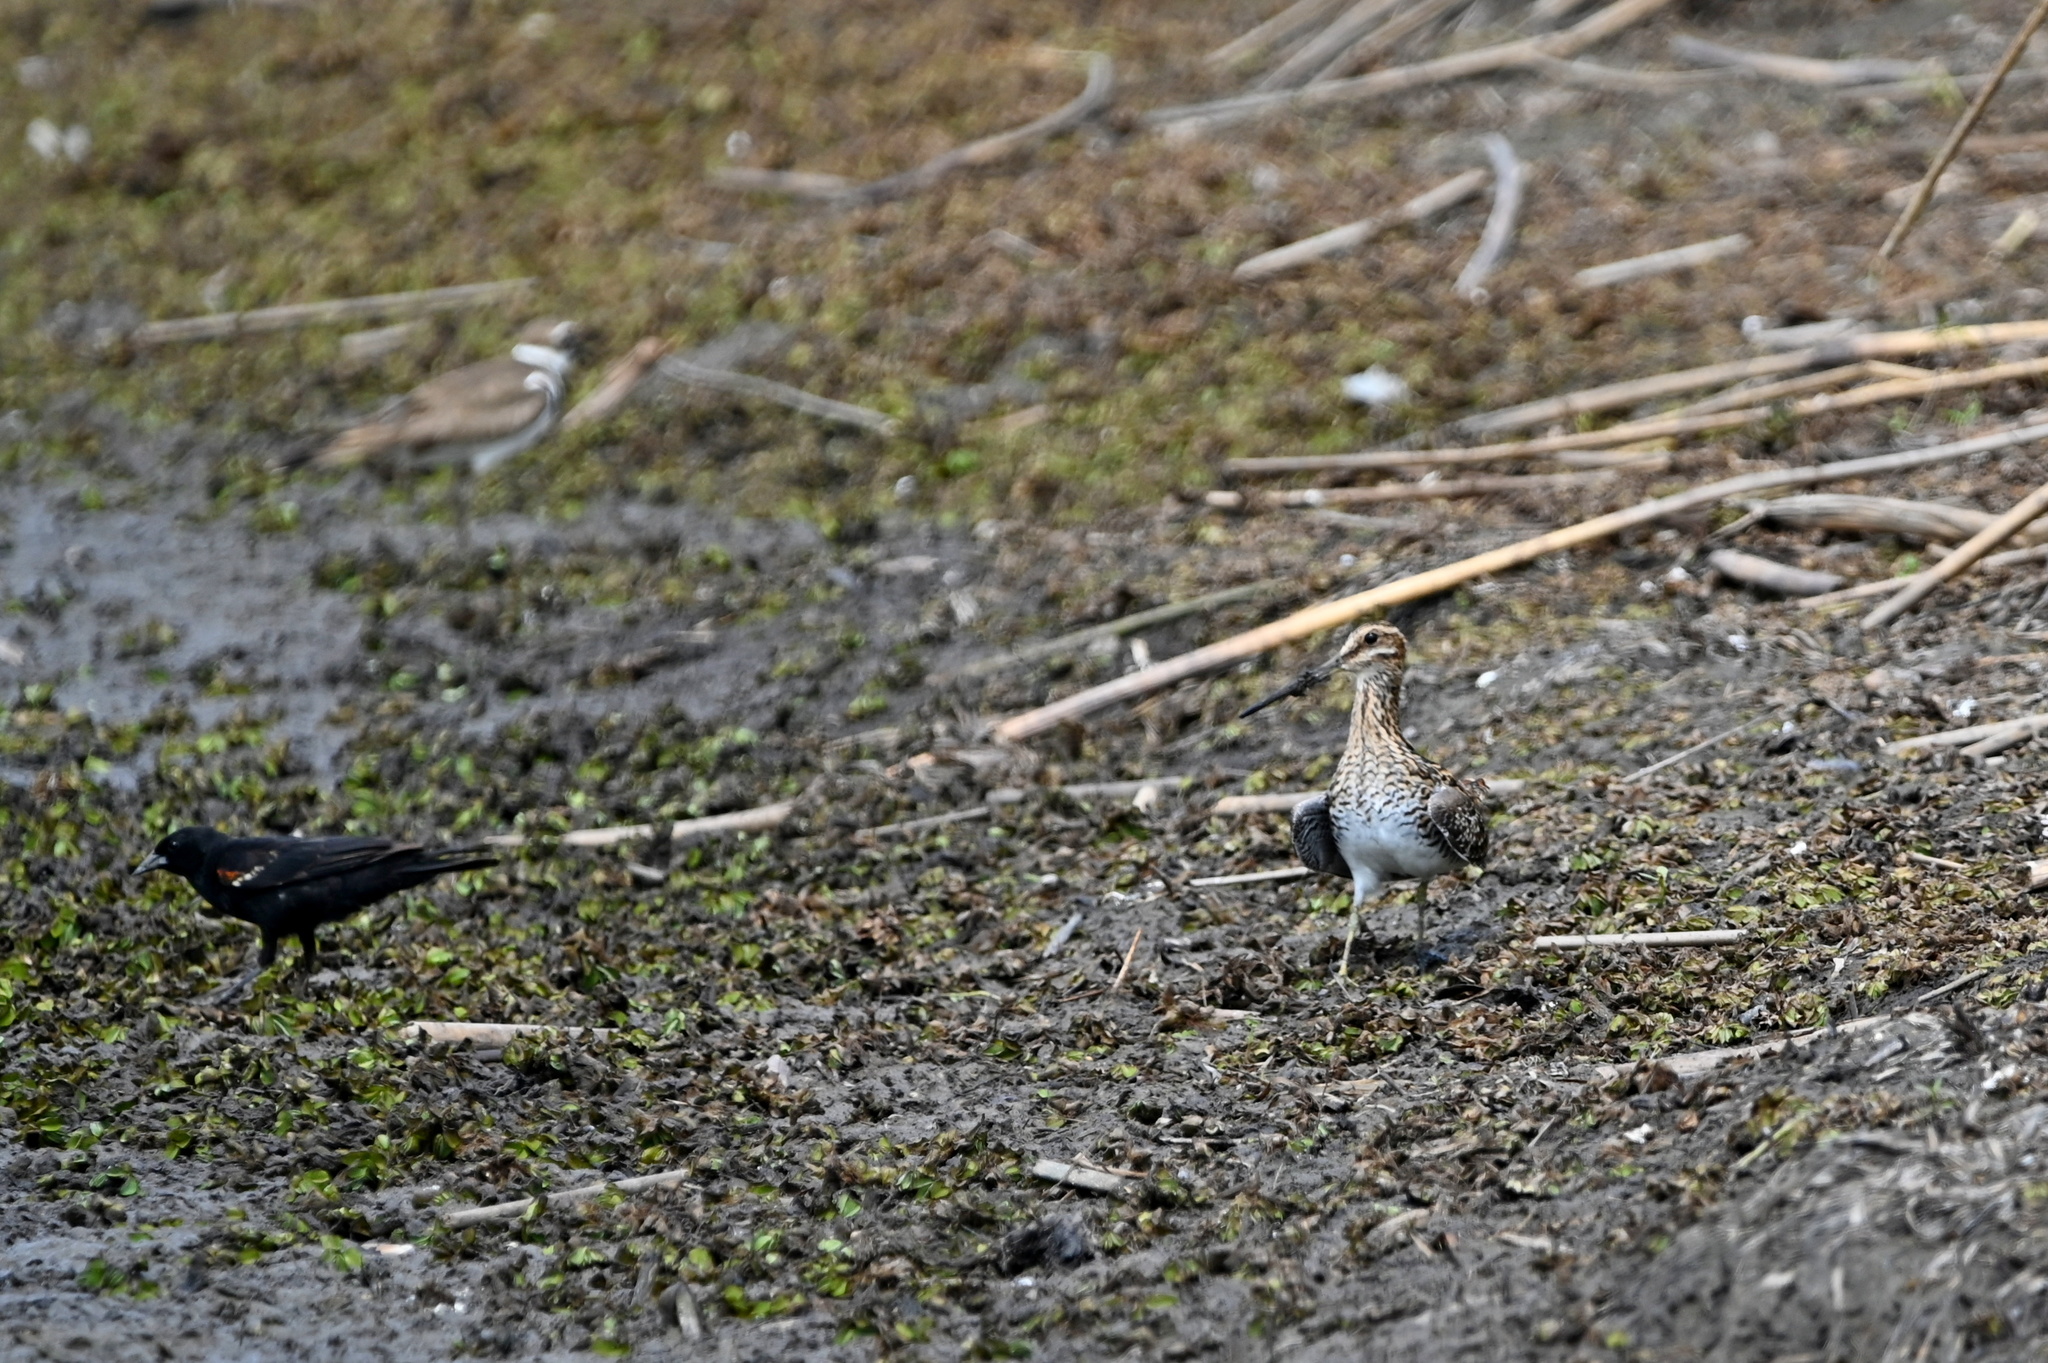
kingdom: Animalia
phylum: Chordata
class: Aves
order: Charadriiformes
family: Scolopacidae
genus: Gallinago
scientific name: Gallinago delicata
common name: Wilson's snipe
